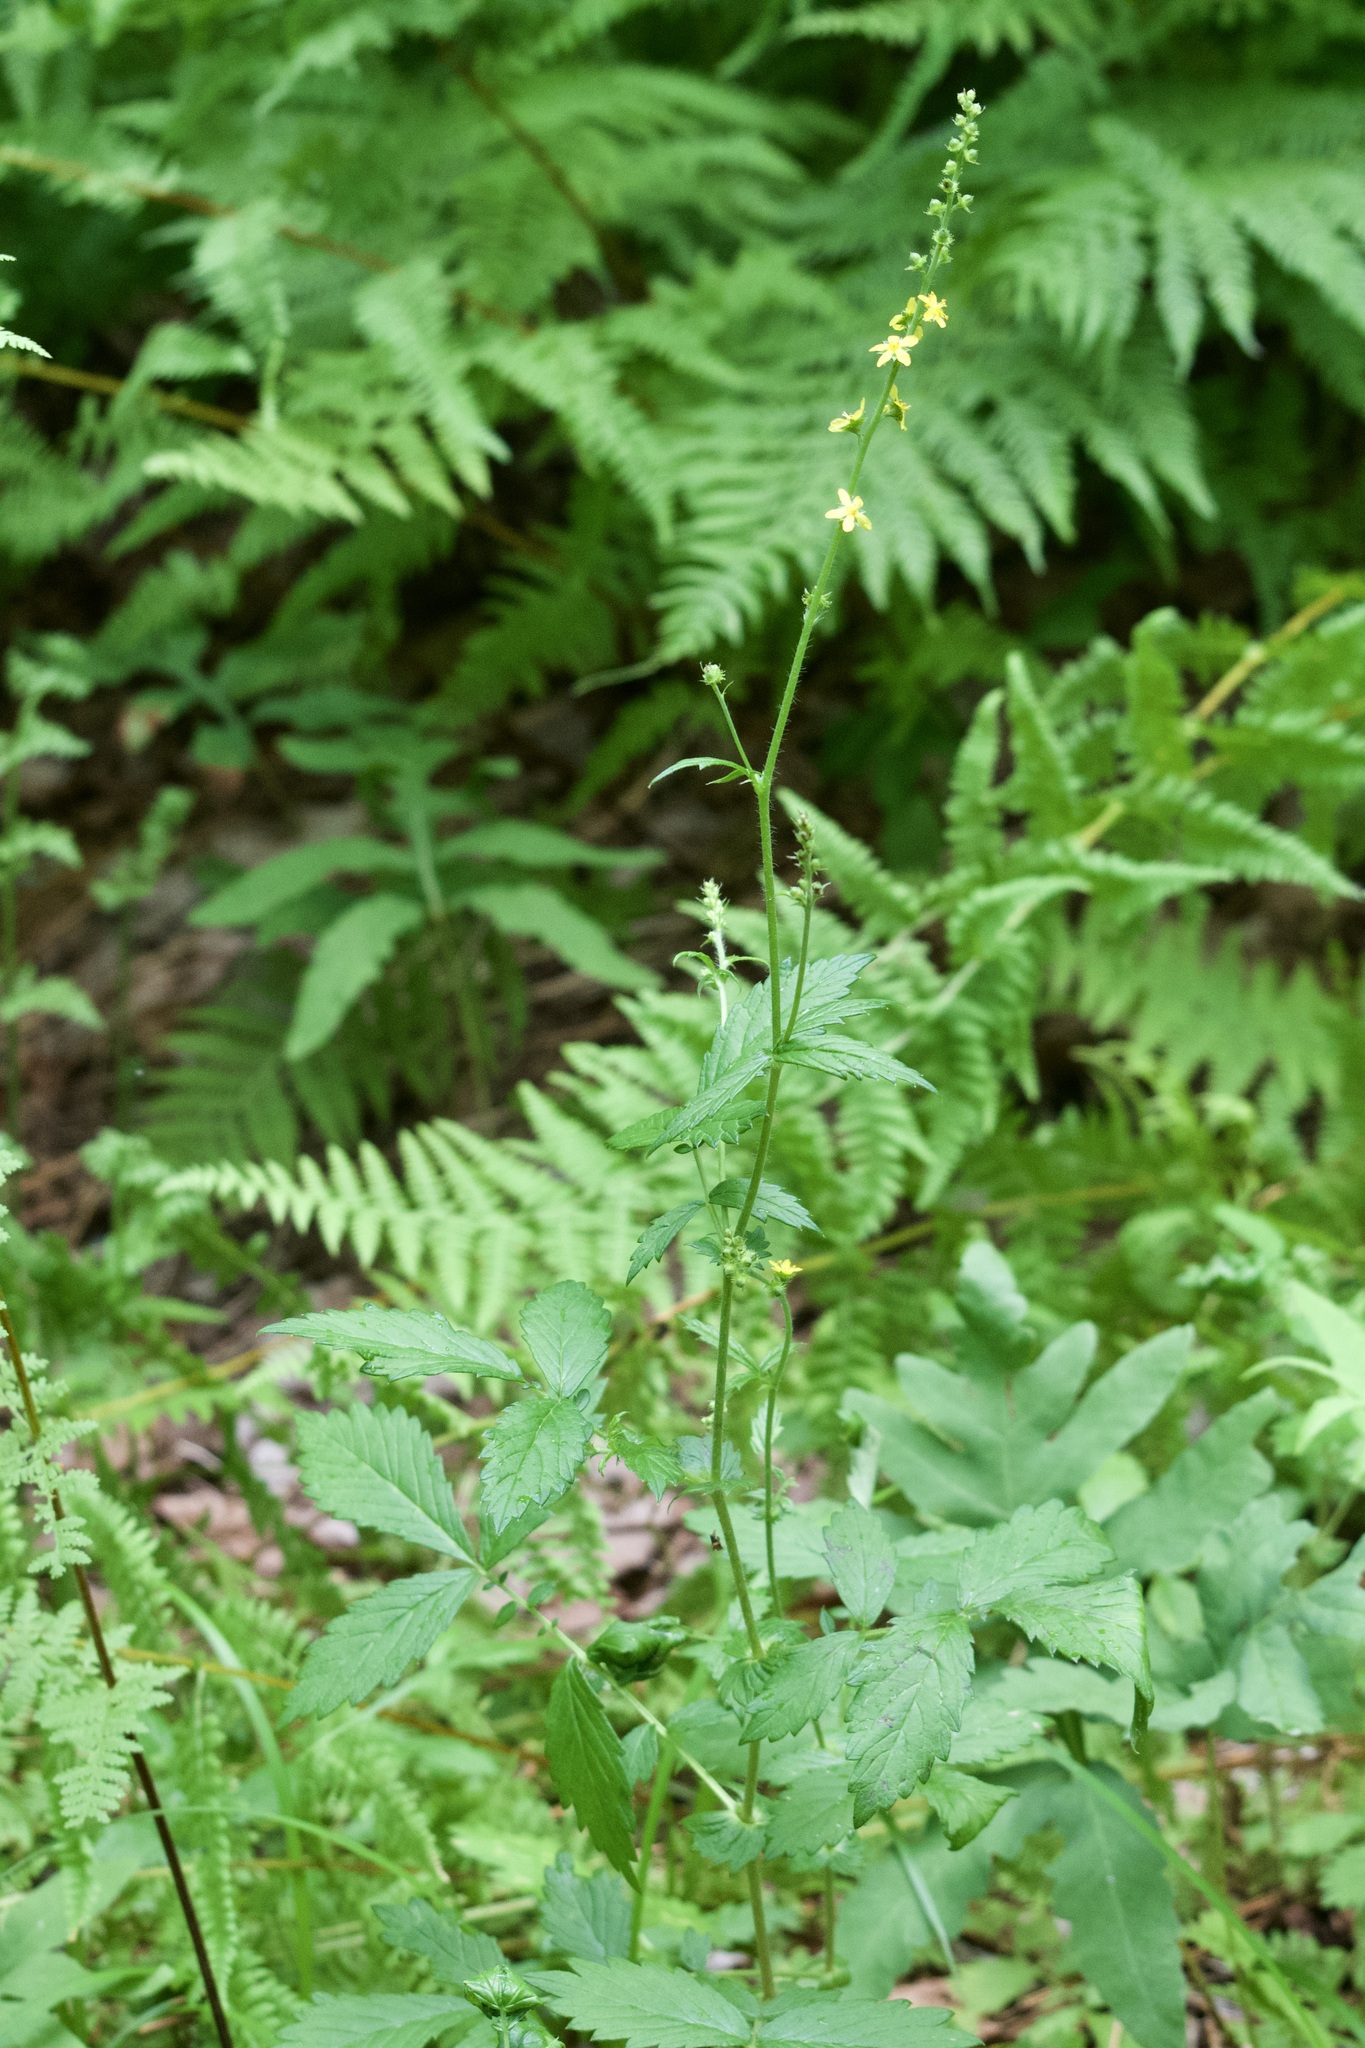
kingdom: Plantae
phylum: Tracheophyta
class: Magnoliopsida
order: Rosales
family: Rosaceae
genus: Agrimonia
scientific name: Agrimonia gryposepala
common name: Common agrimony
